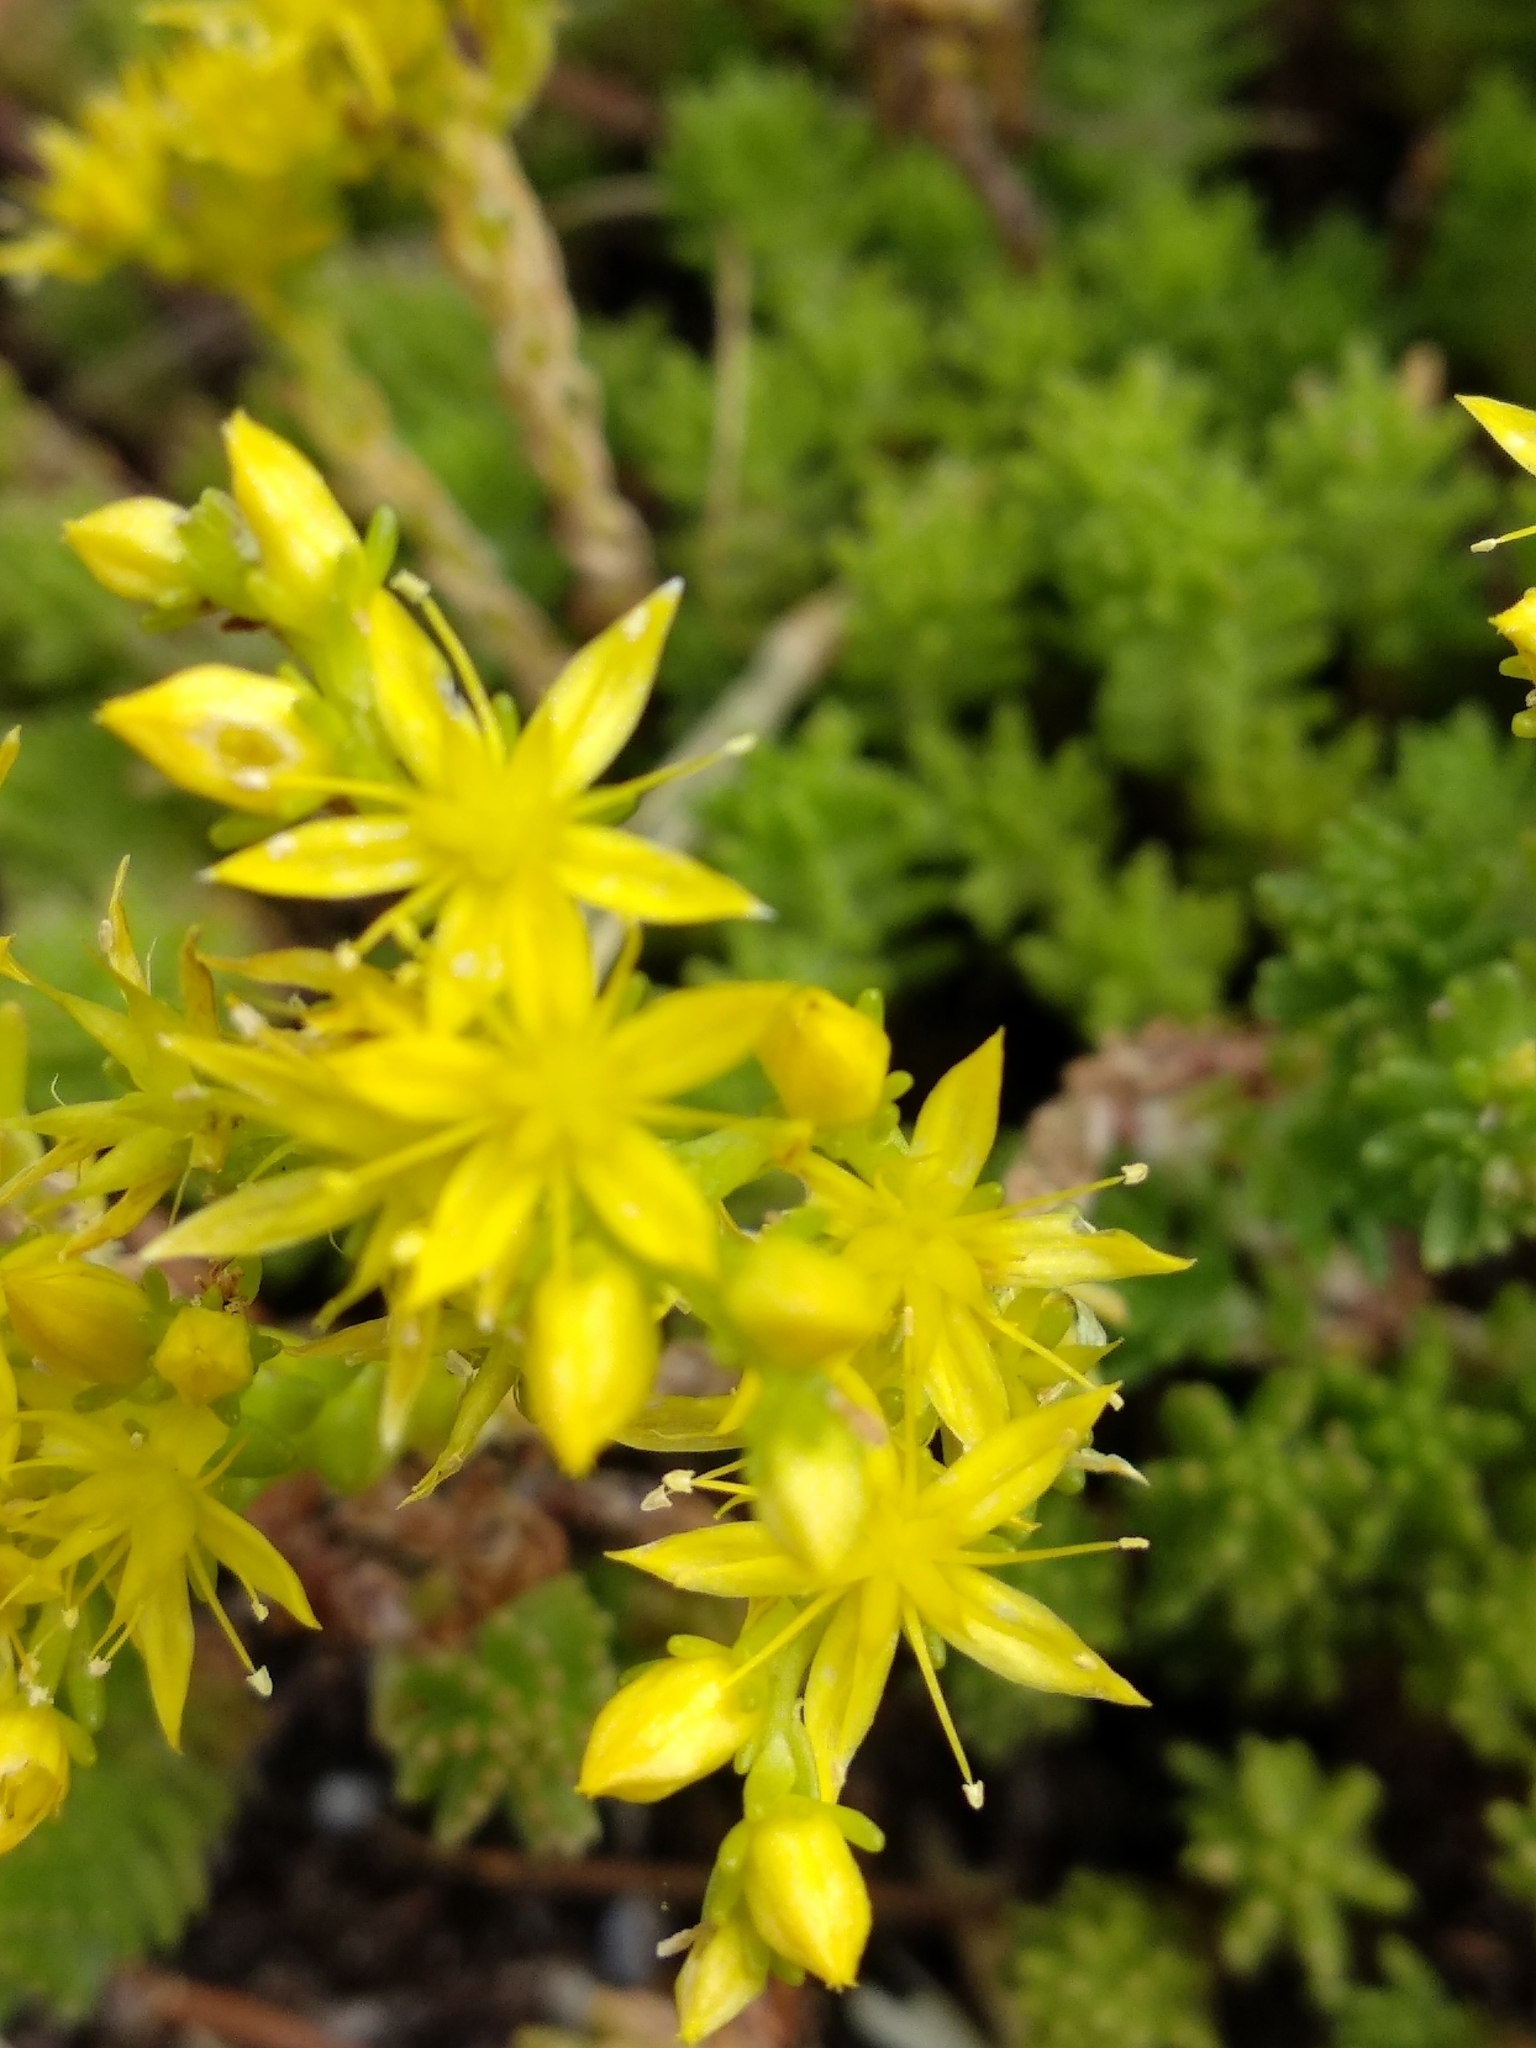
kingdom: Plantae
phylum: Tracheophyta
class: Magnoliopsida
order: Saxifragales
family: Crassulaceae
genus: Sedum
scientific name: Sedum sexangulare
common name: Tasteless stonecrop
